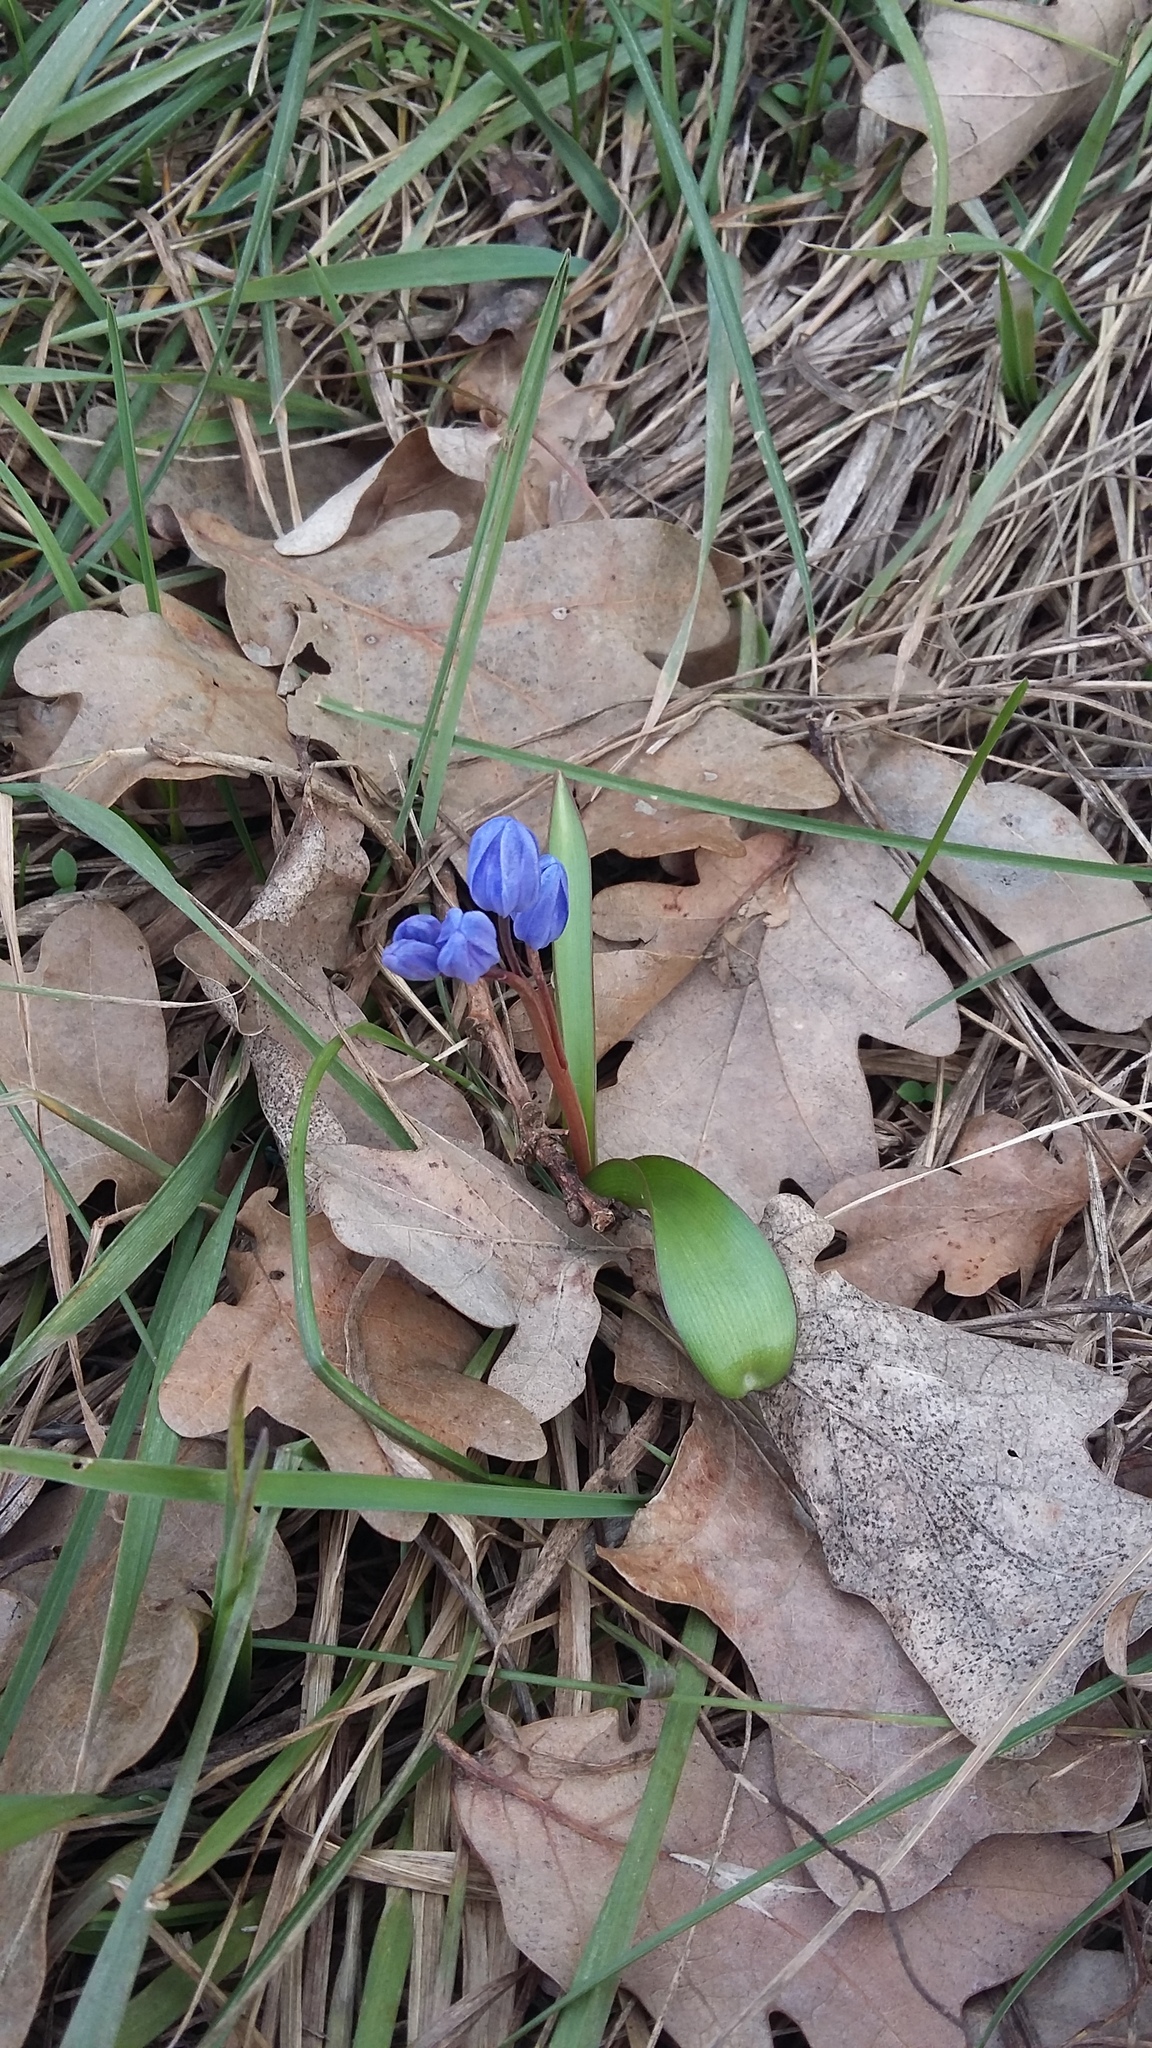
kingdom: Plantae
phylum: Tracheophyta
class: Liliopsida
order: Asparagales
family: Asparagaceae
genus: Scilla
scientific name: Scilla bifolia
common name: Alpine squill
